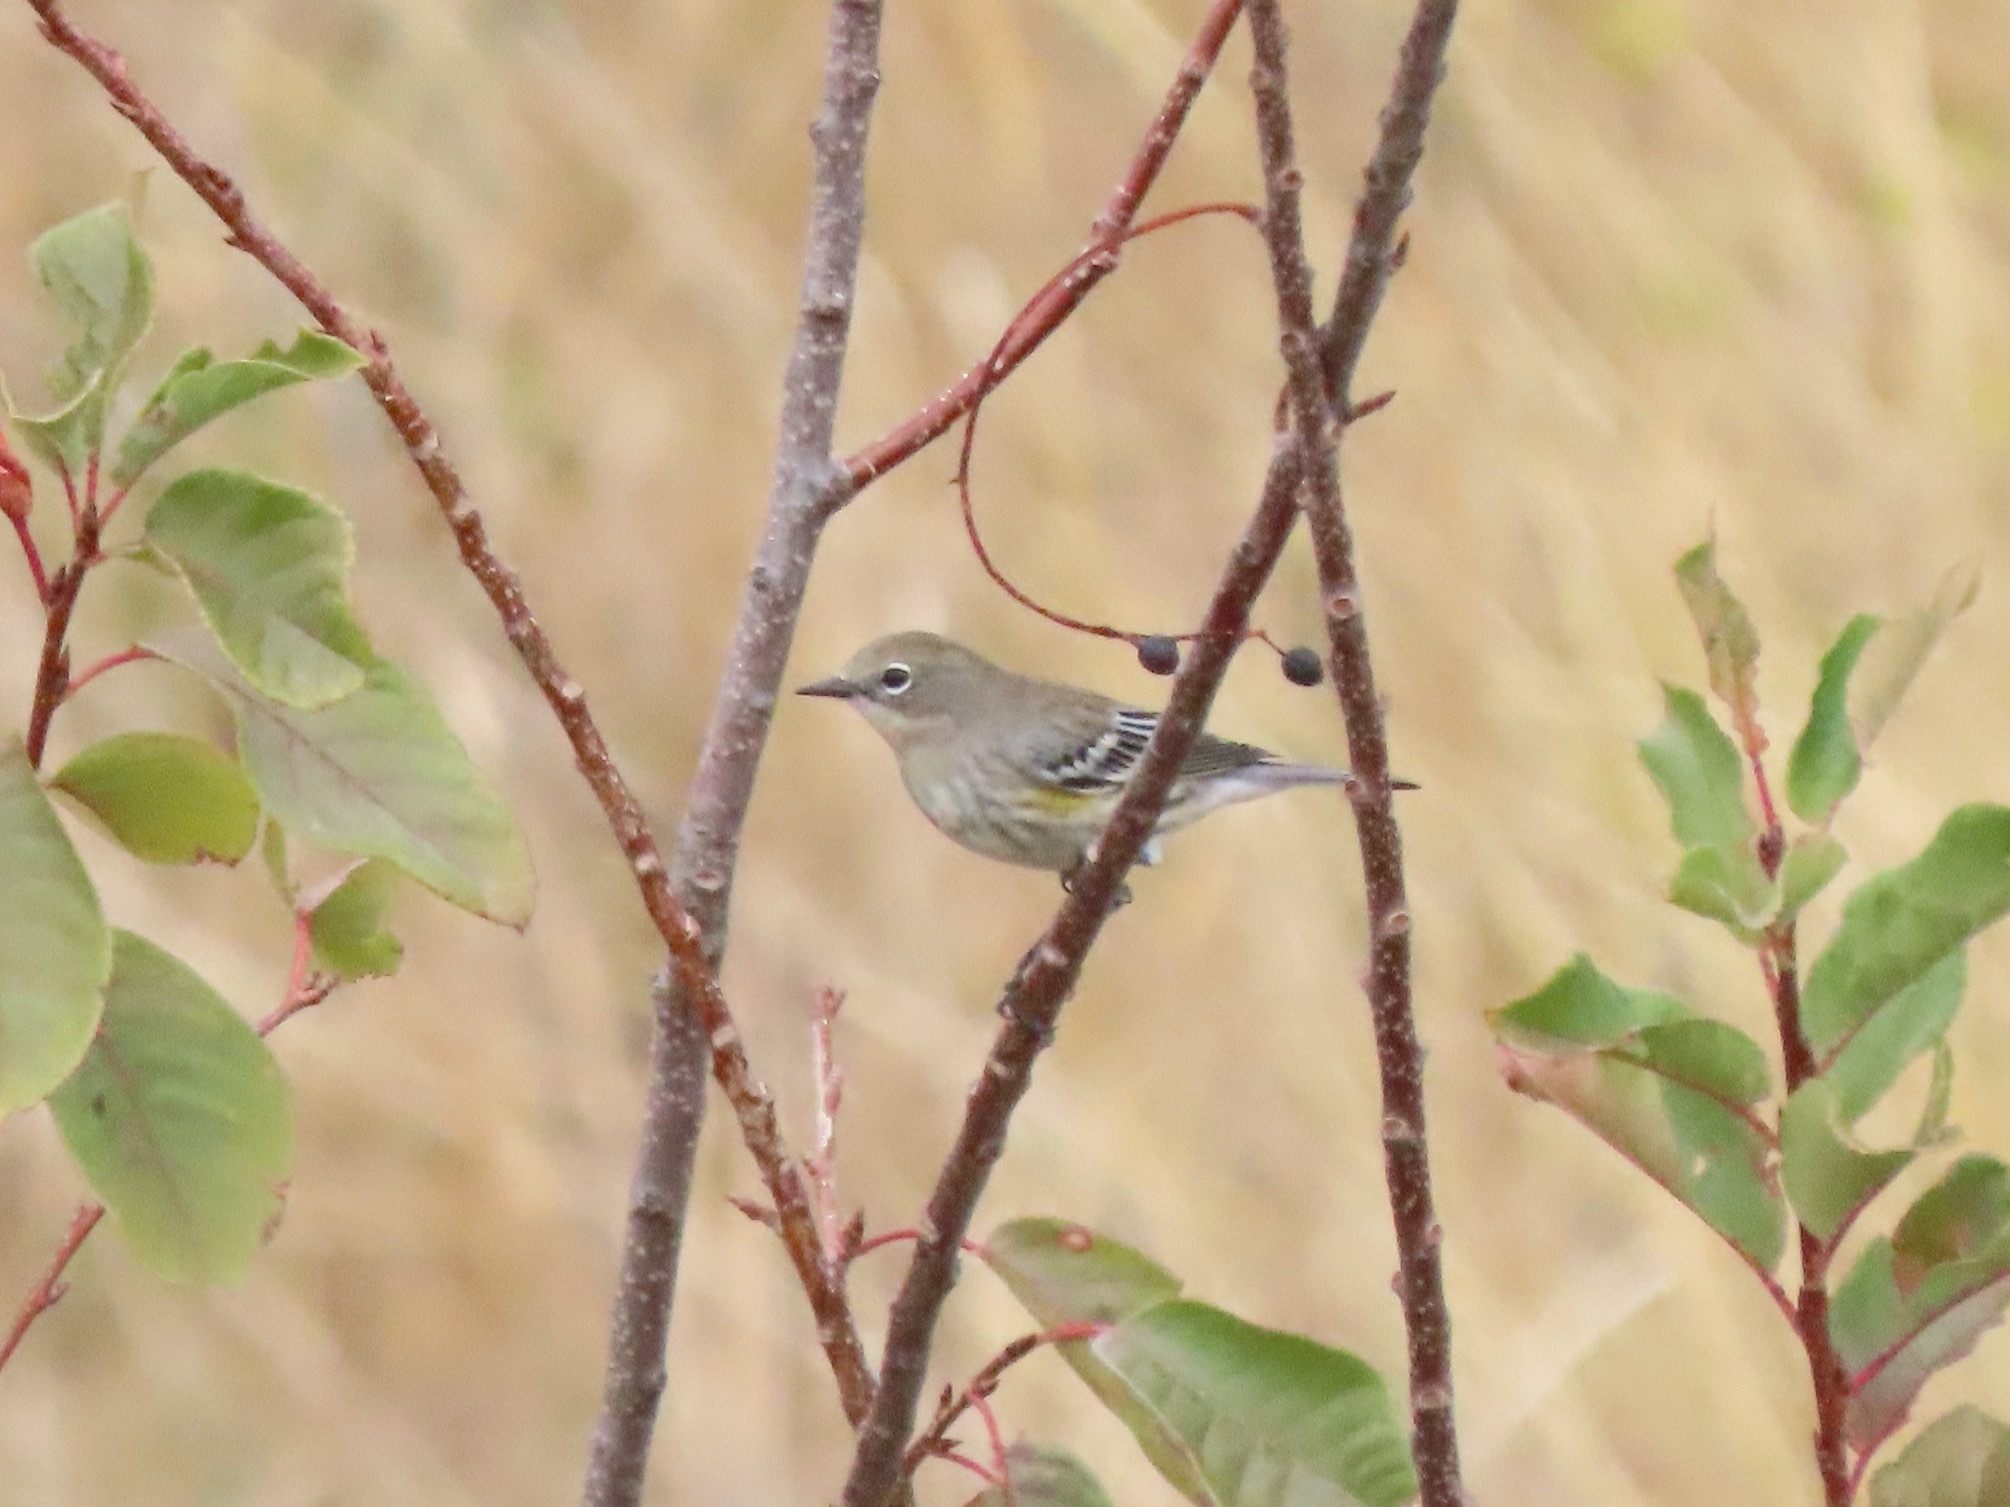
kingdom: Animalia
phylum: Chordata
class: Aves
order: Passeriformes
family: Parulidae
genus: Setophaga
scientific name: Setophaga coronata
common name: Myrtle warbler
